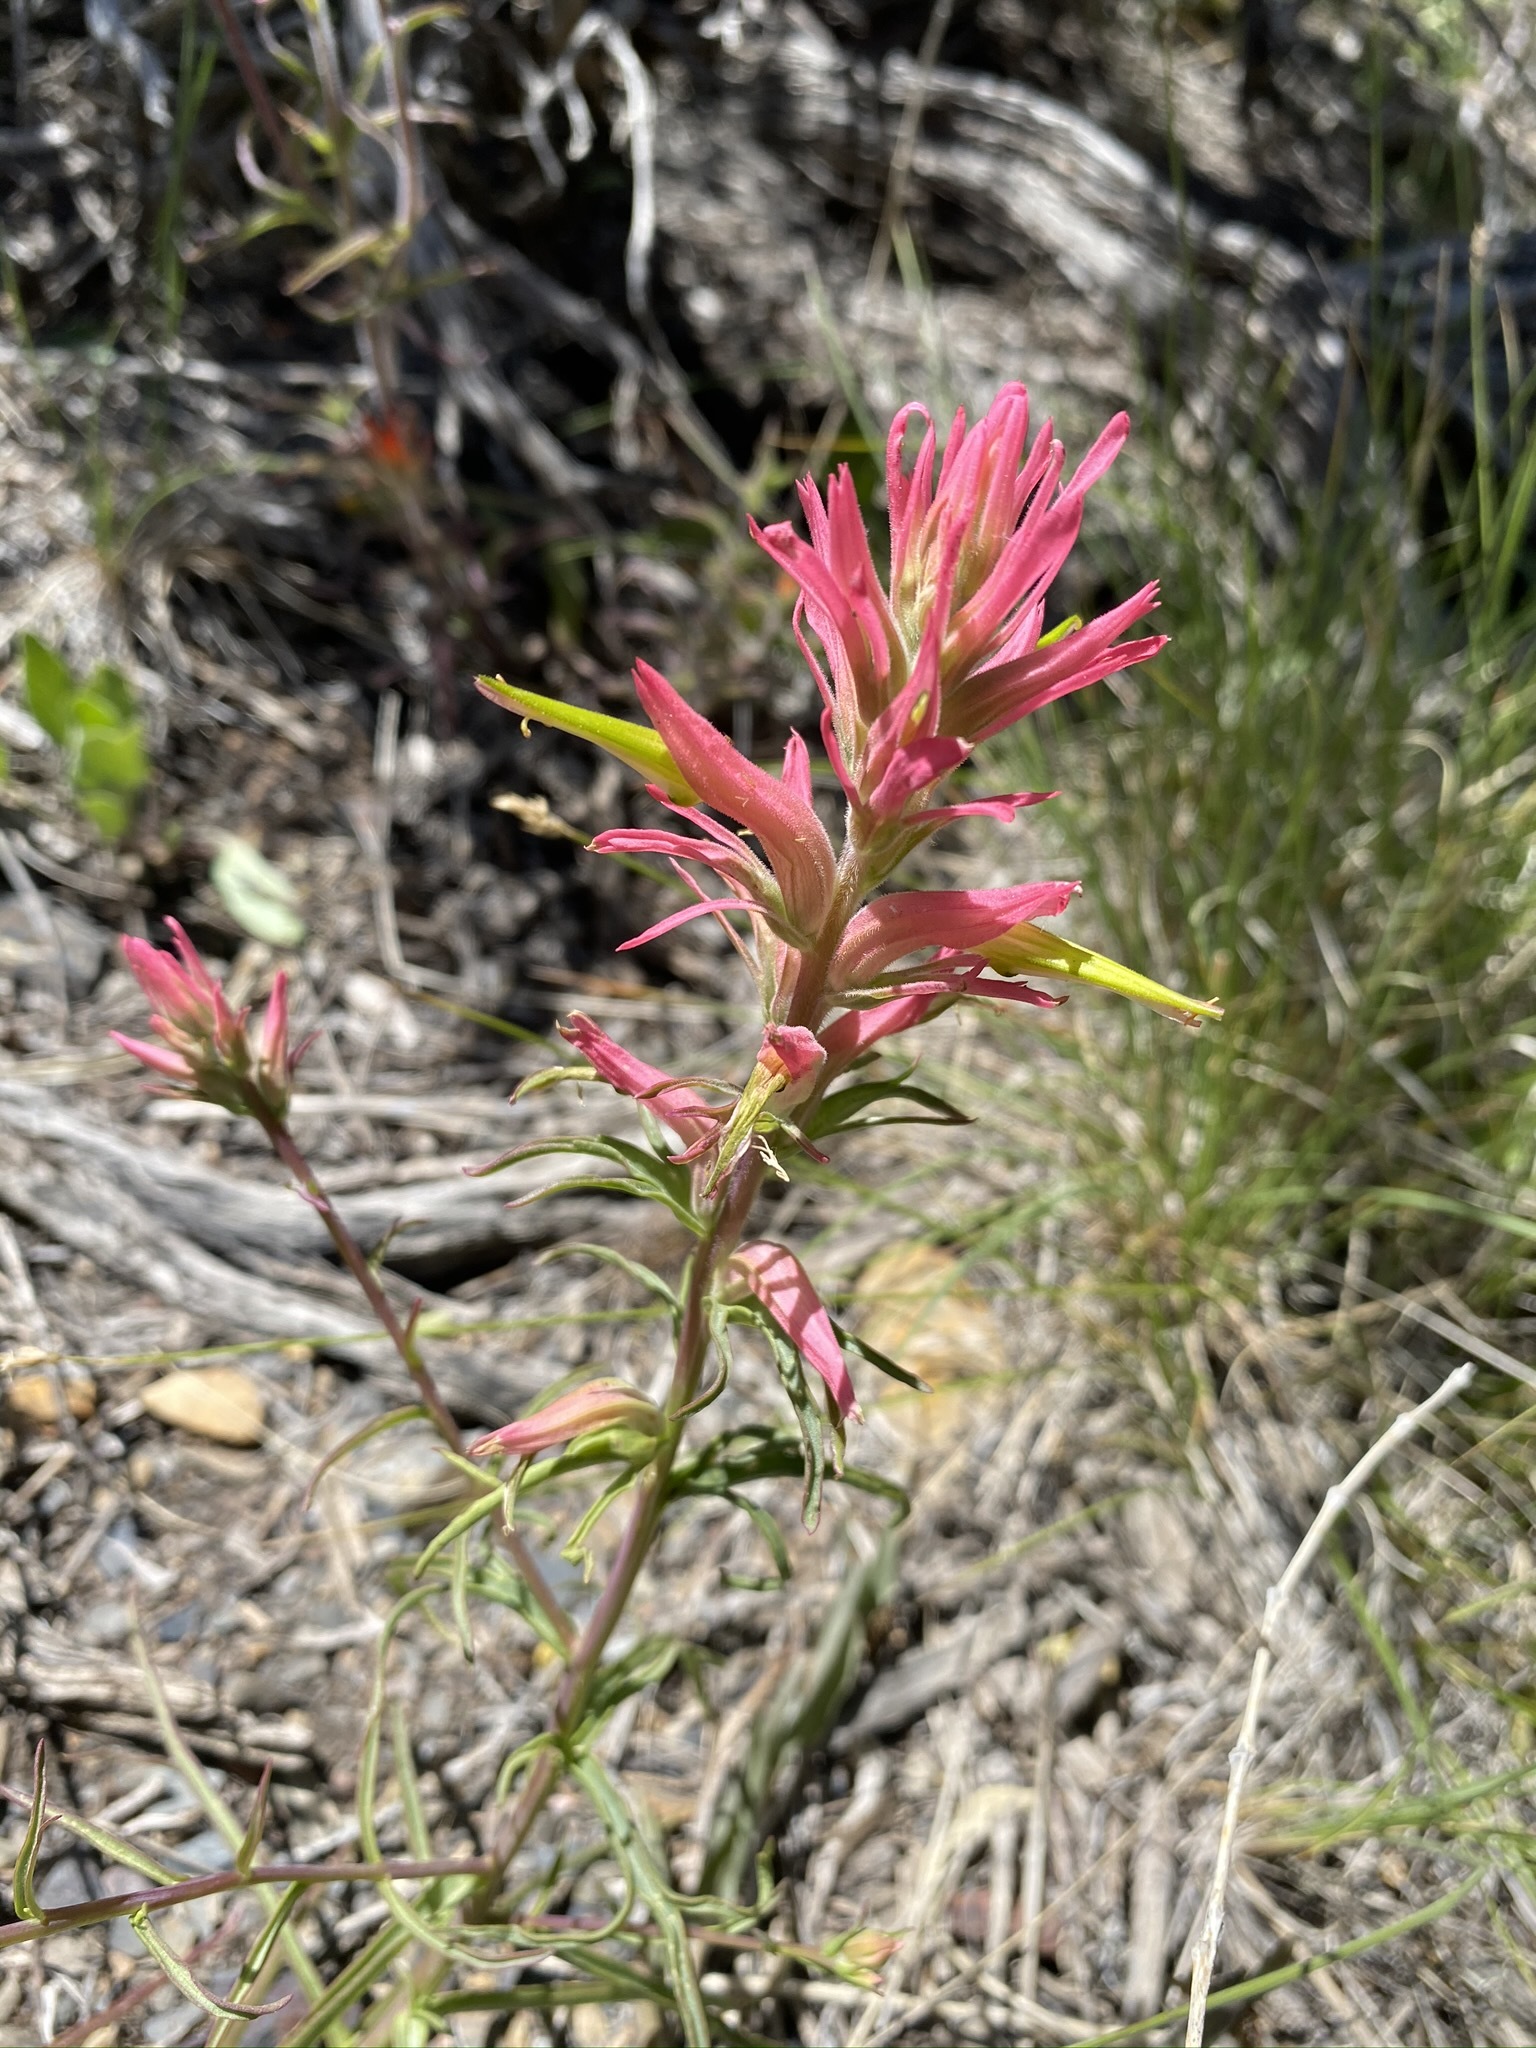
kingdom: Plantae
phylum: Tracheophyta
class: Magnoliopsida
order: Lamiales
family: Orobanchaceae
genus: Castilleja
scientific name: Castilleja linariifolia
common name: Wyoming paintbrush
